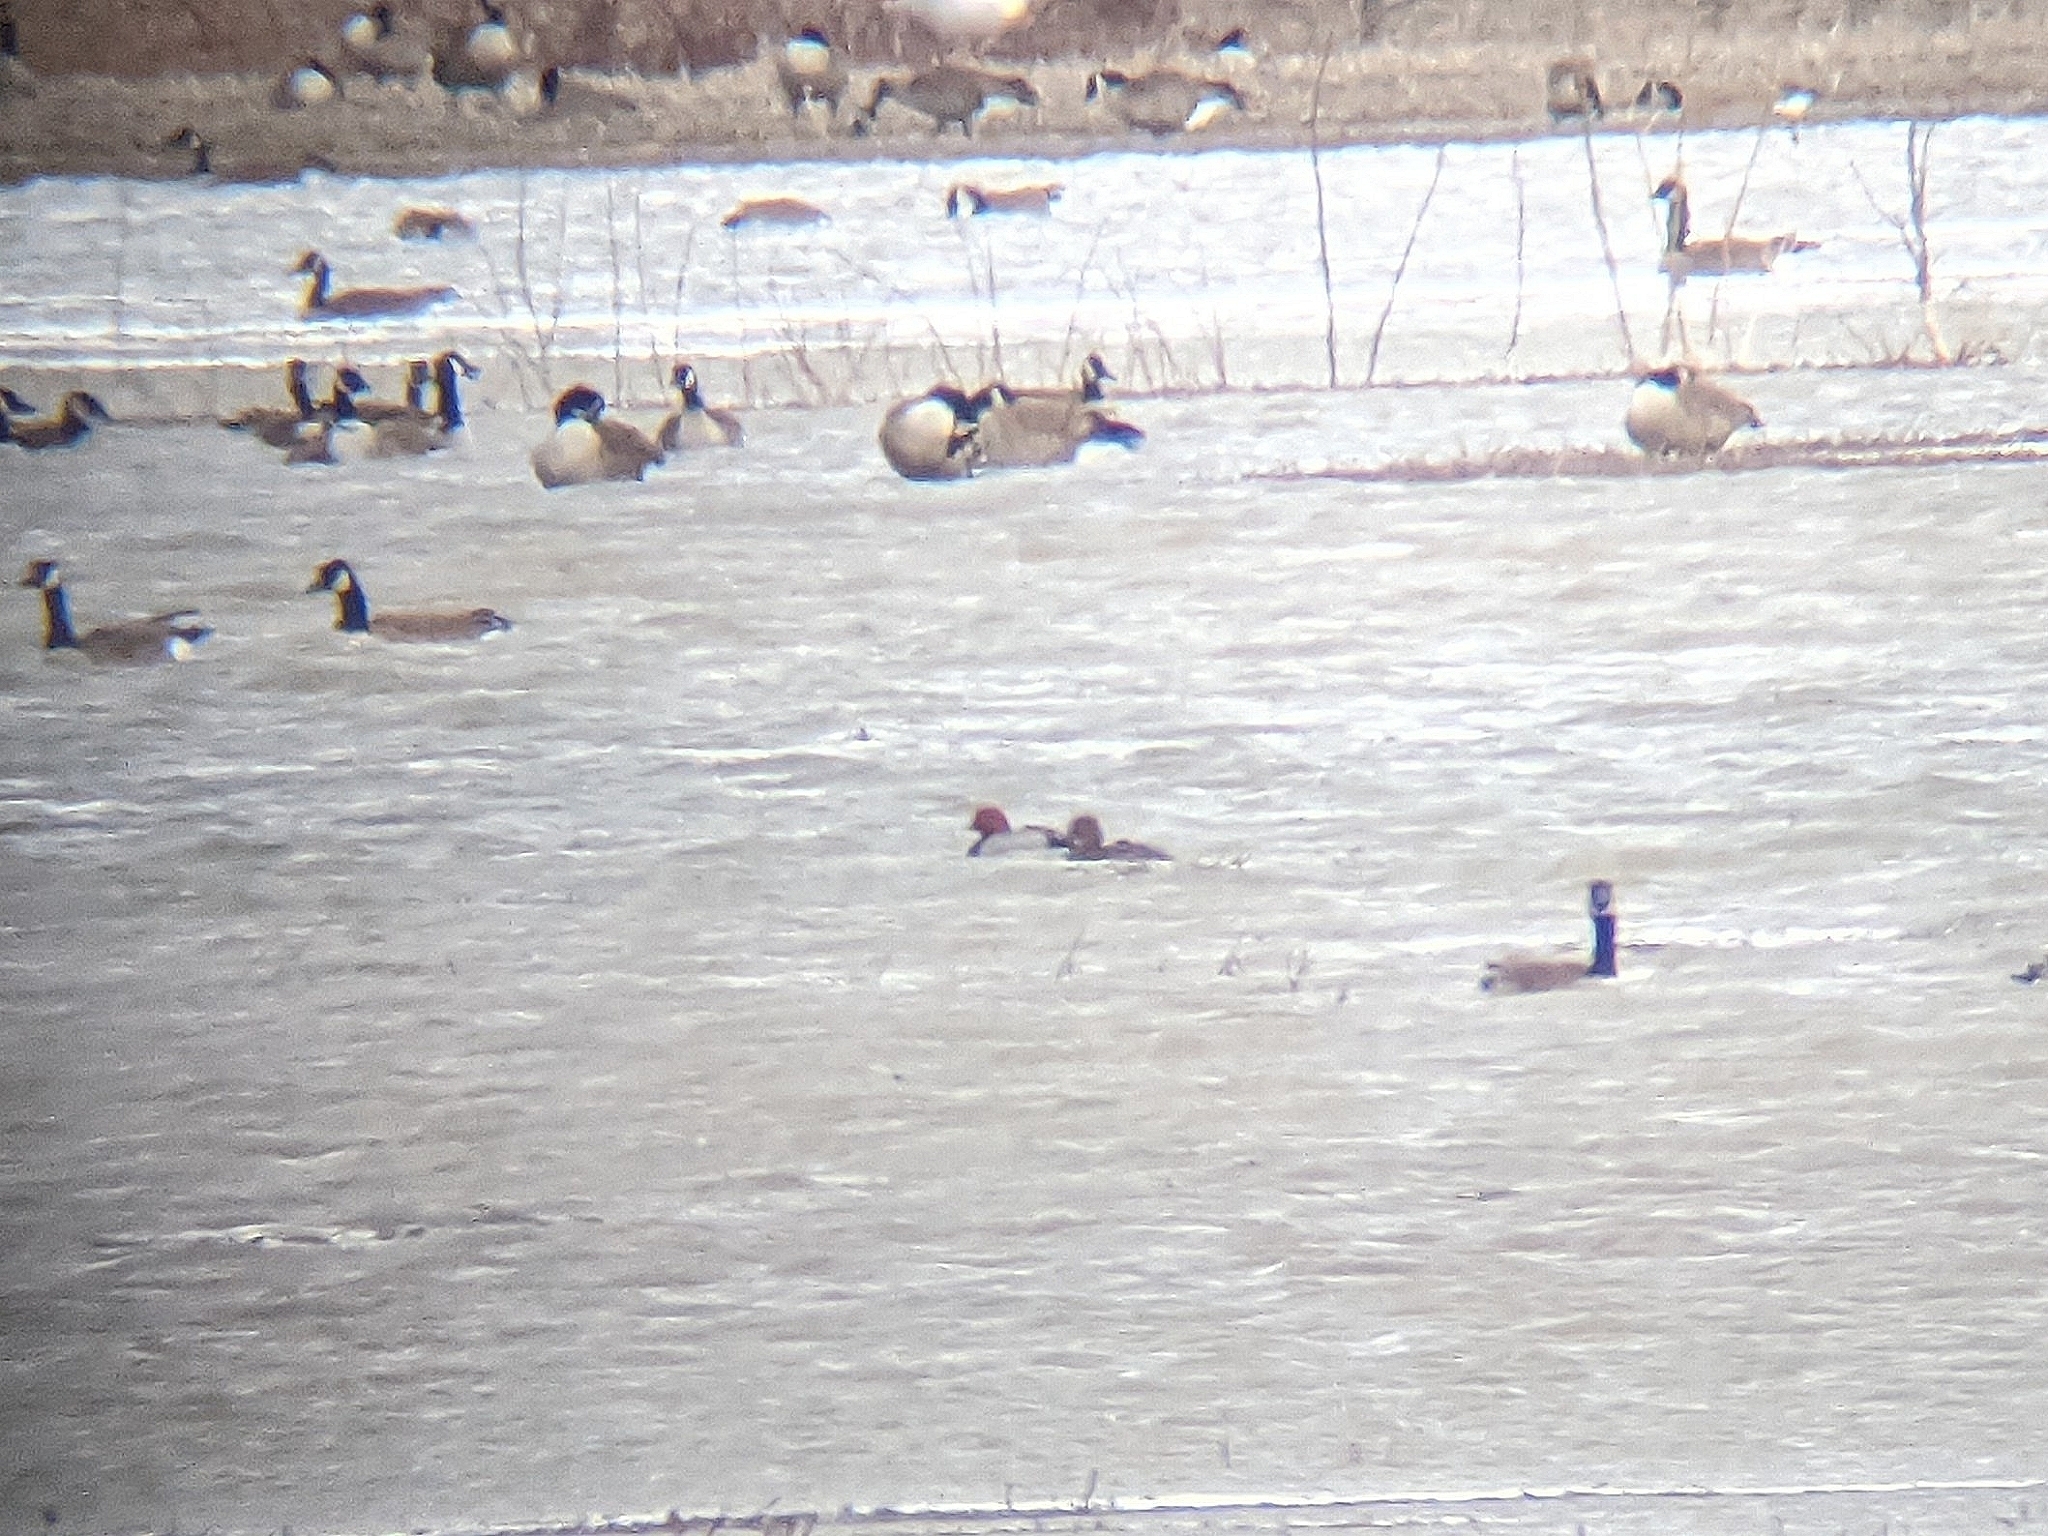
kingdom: Animalia
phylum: Chordata
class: Aves
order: Anseriformes
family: Anatidae
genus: Aythya
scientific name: Aythya americana
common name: Redhead
